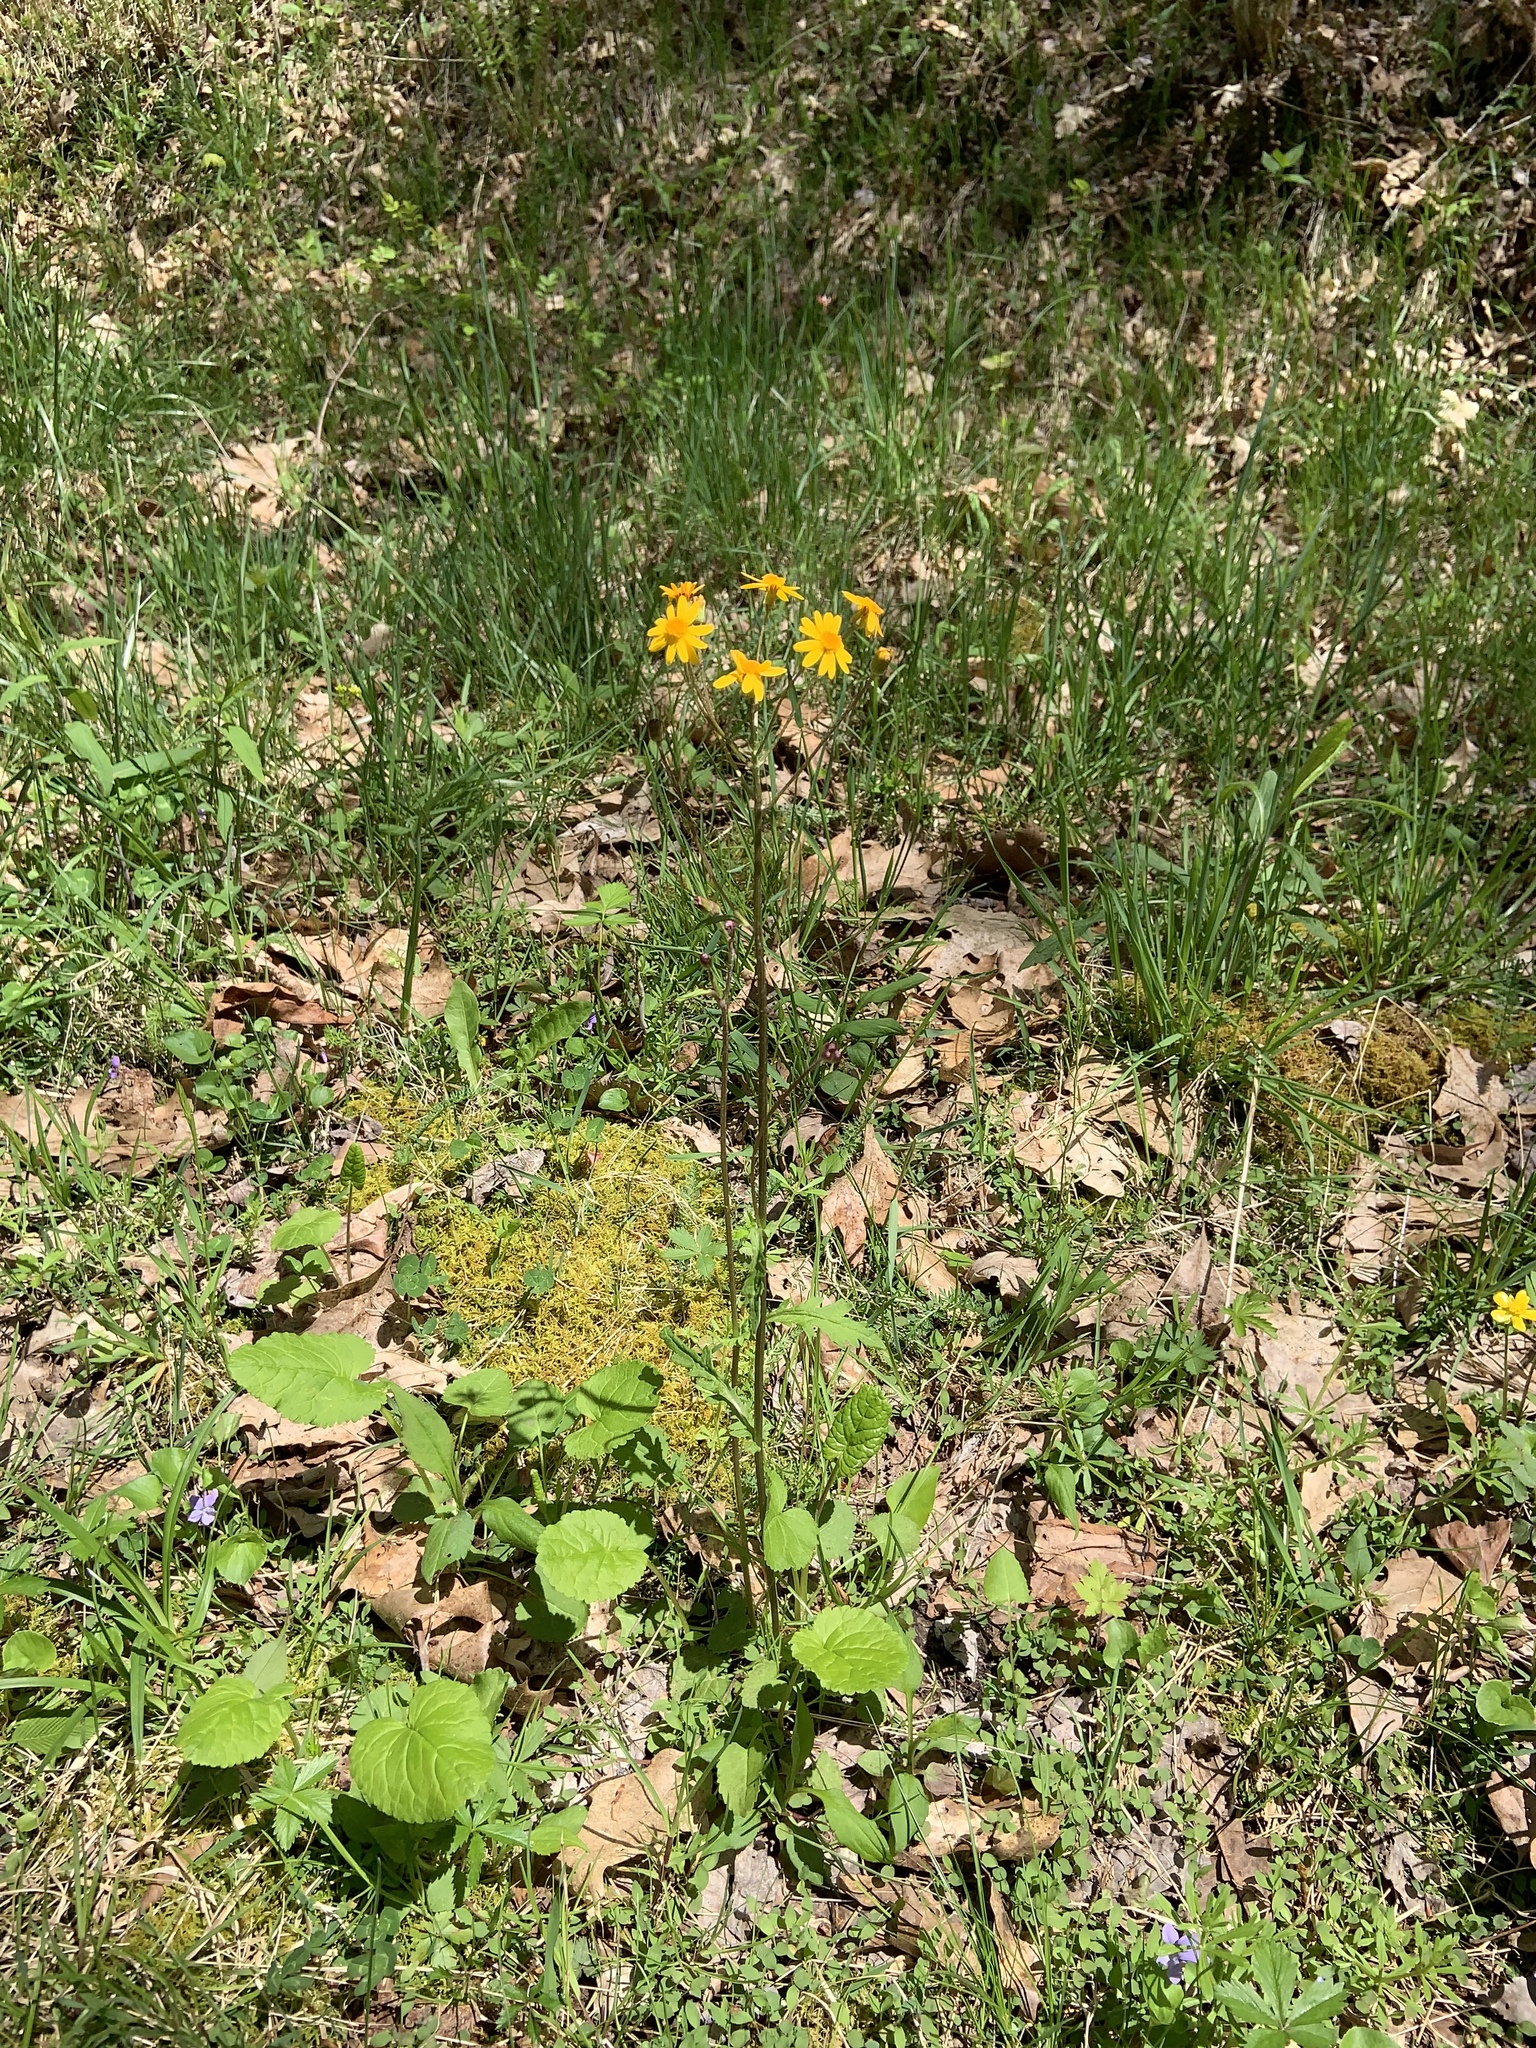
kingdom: Plantae
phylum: Tracheophyta
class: Magnoliopsida
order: Asterales
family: Asteraceae
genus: Packera
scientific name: Packera aurea
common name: Golden groundsel
